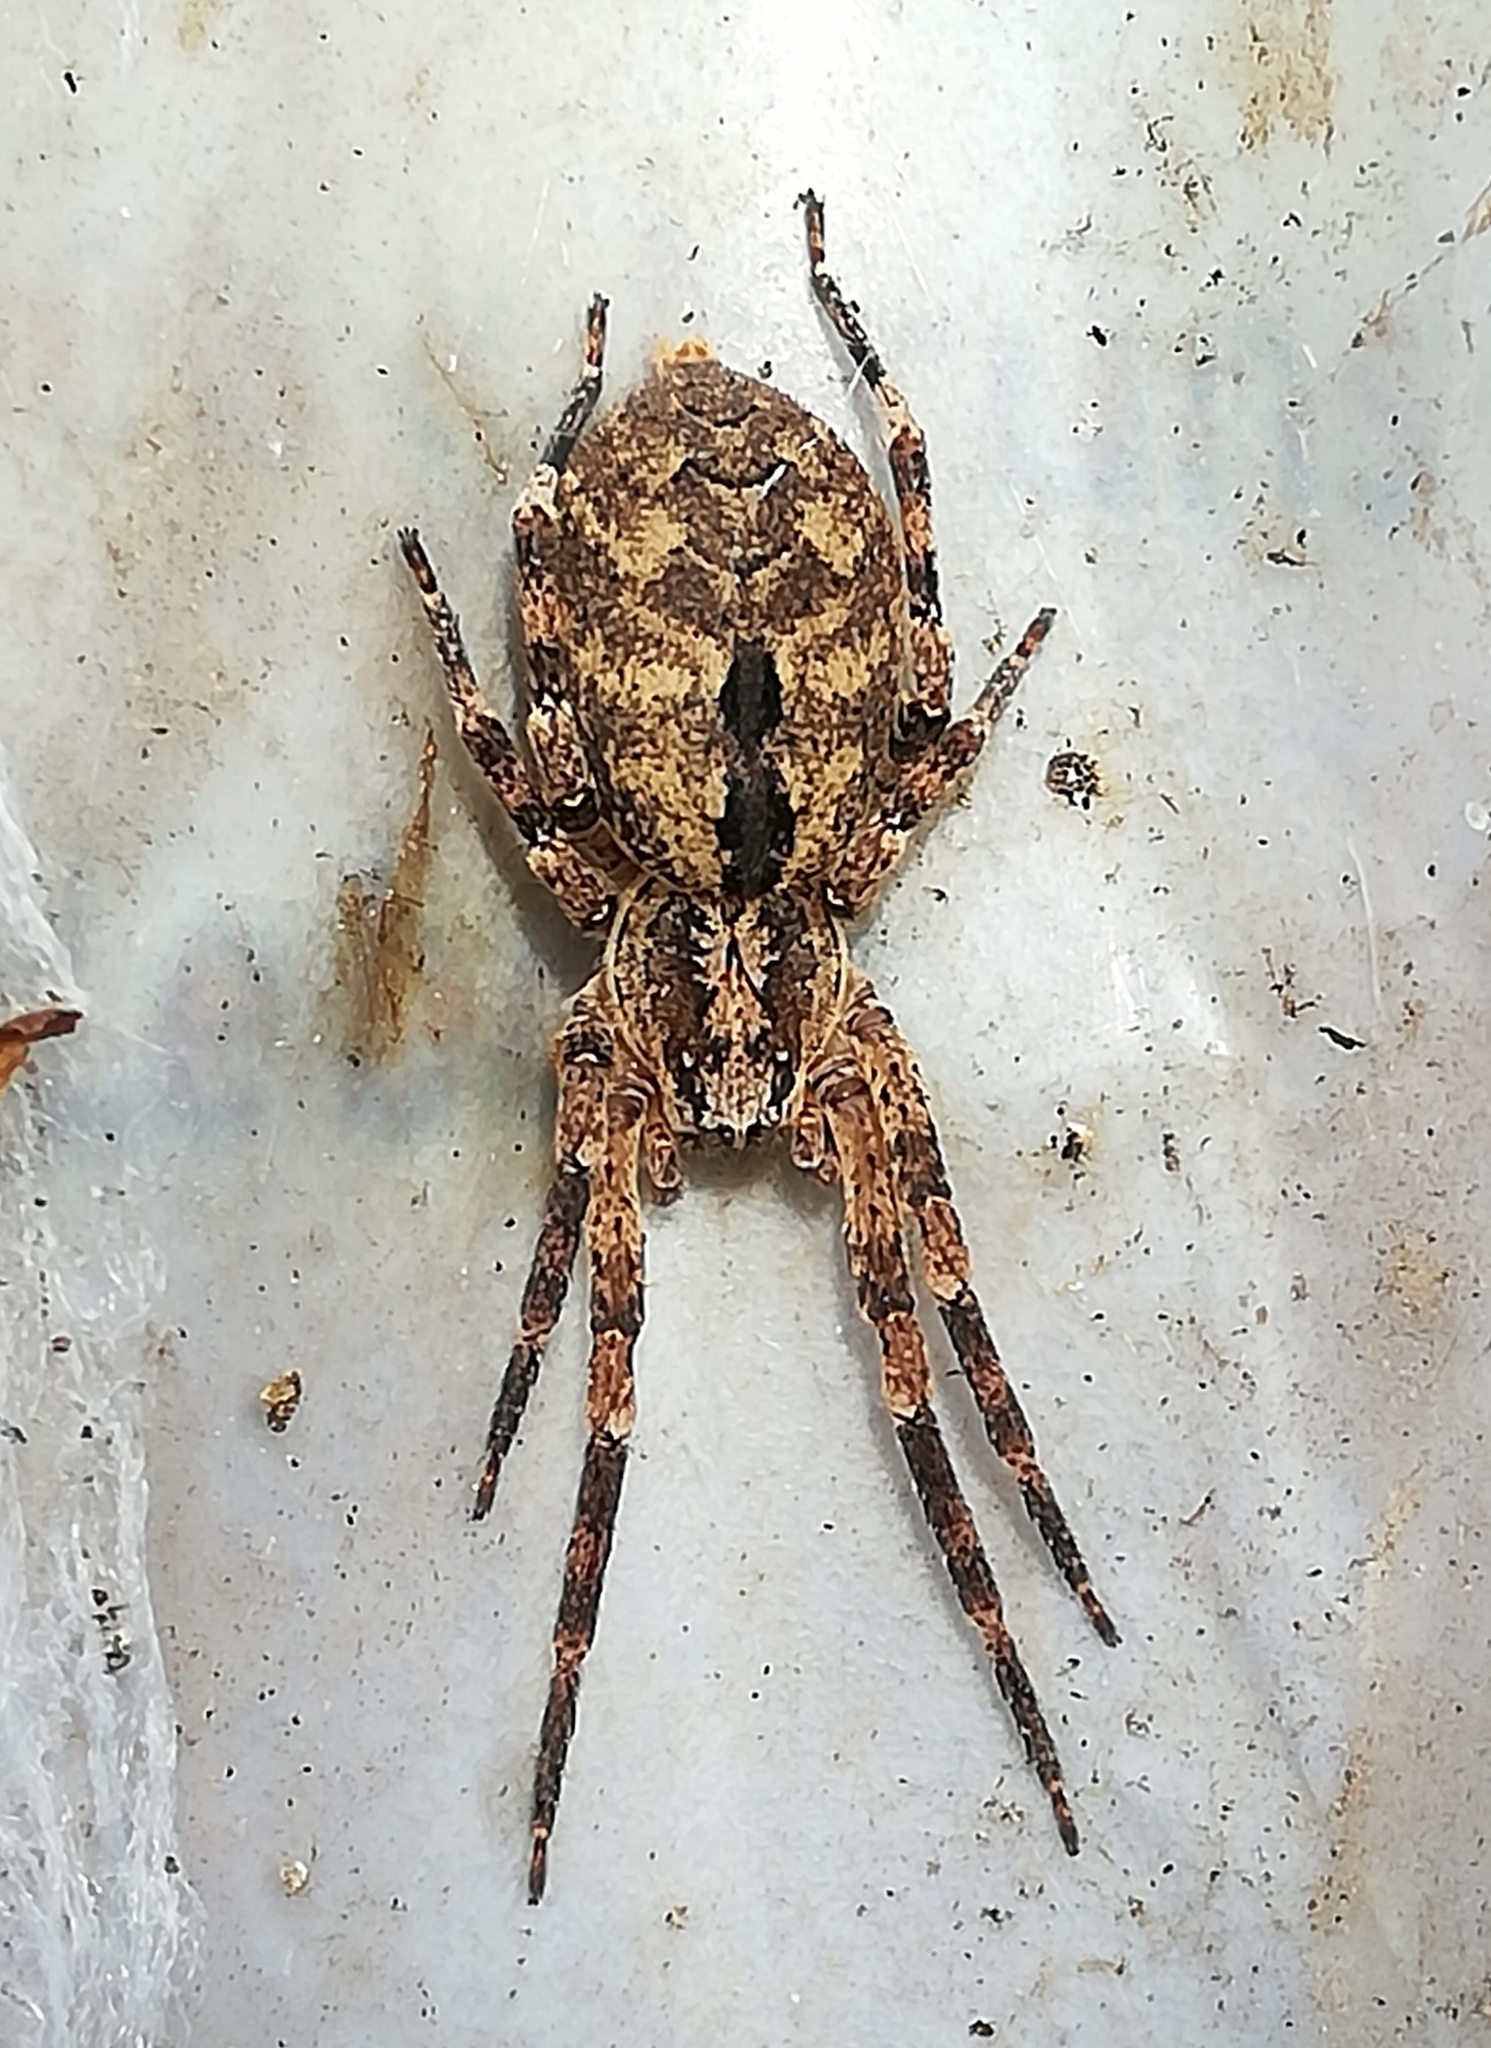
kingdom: Animalia
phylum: Arthropoda
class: Arachnida
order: Araneae
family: Zoropsidae
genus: Zoropsis
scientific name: Zoropsis spinimana
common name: Zoropsid spider
